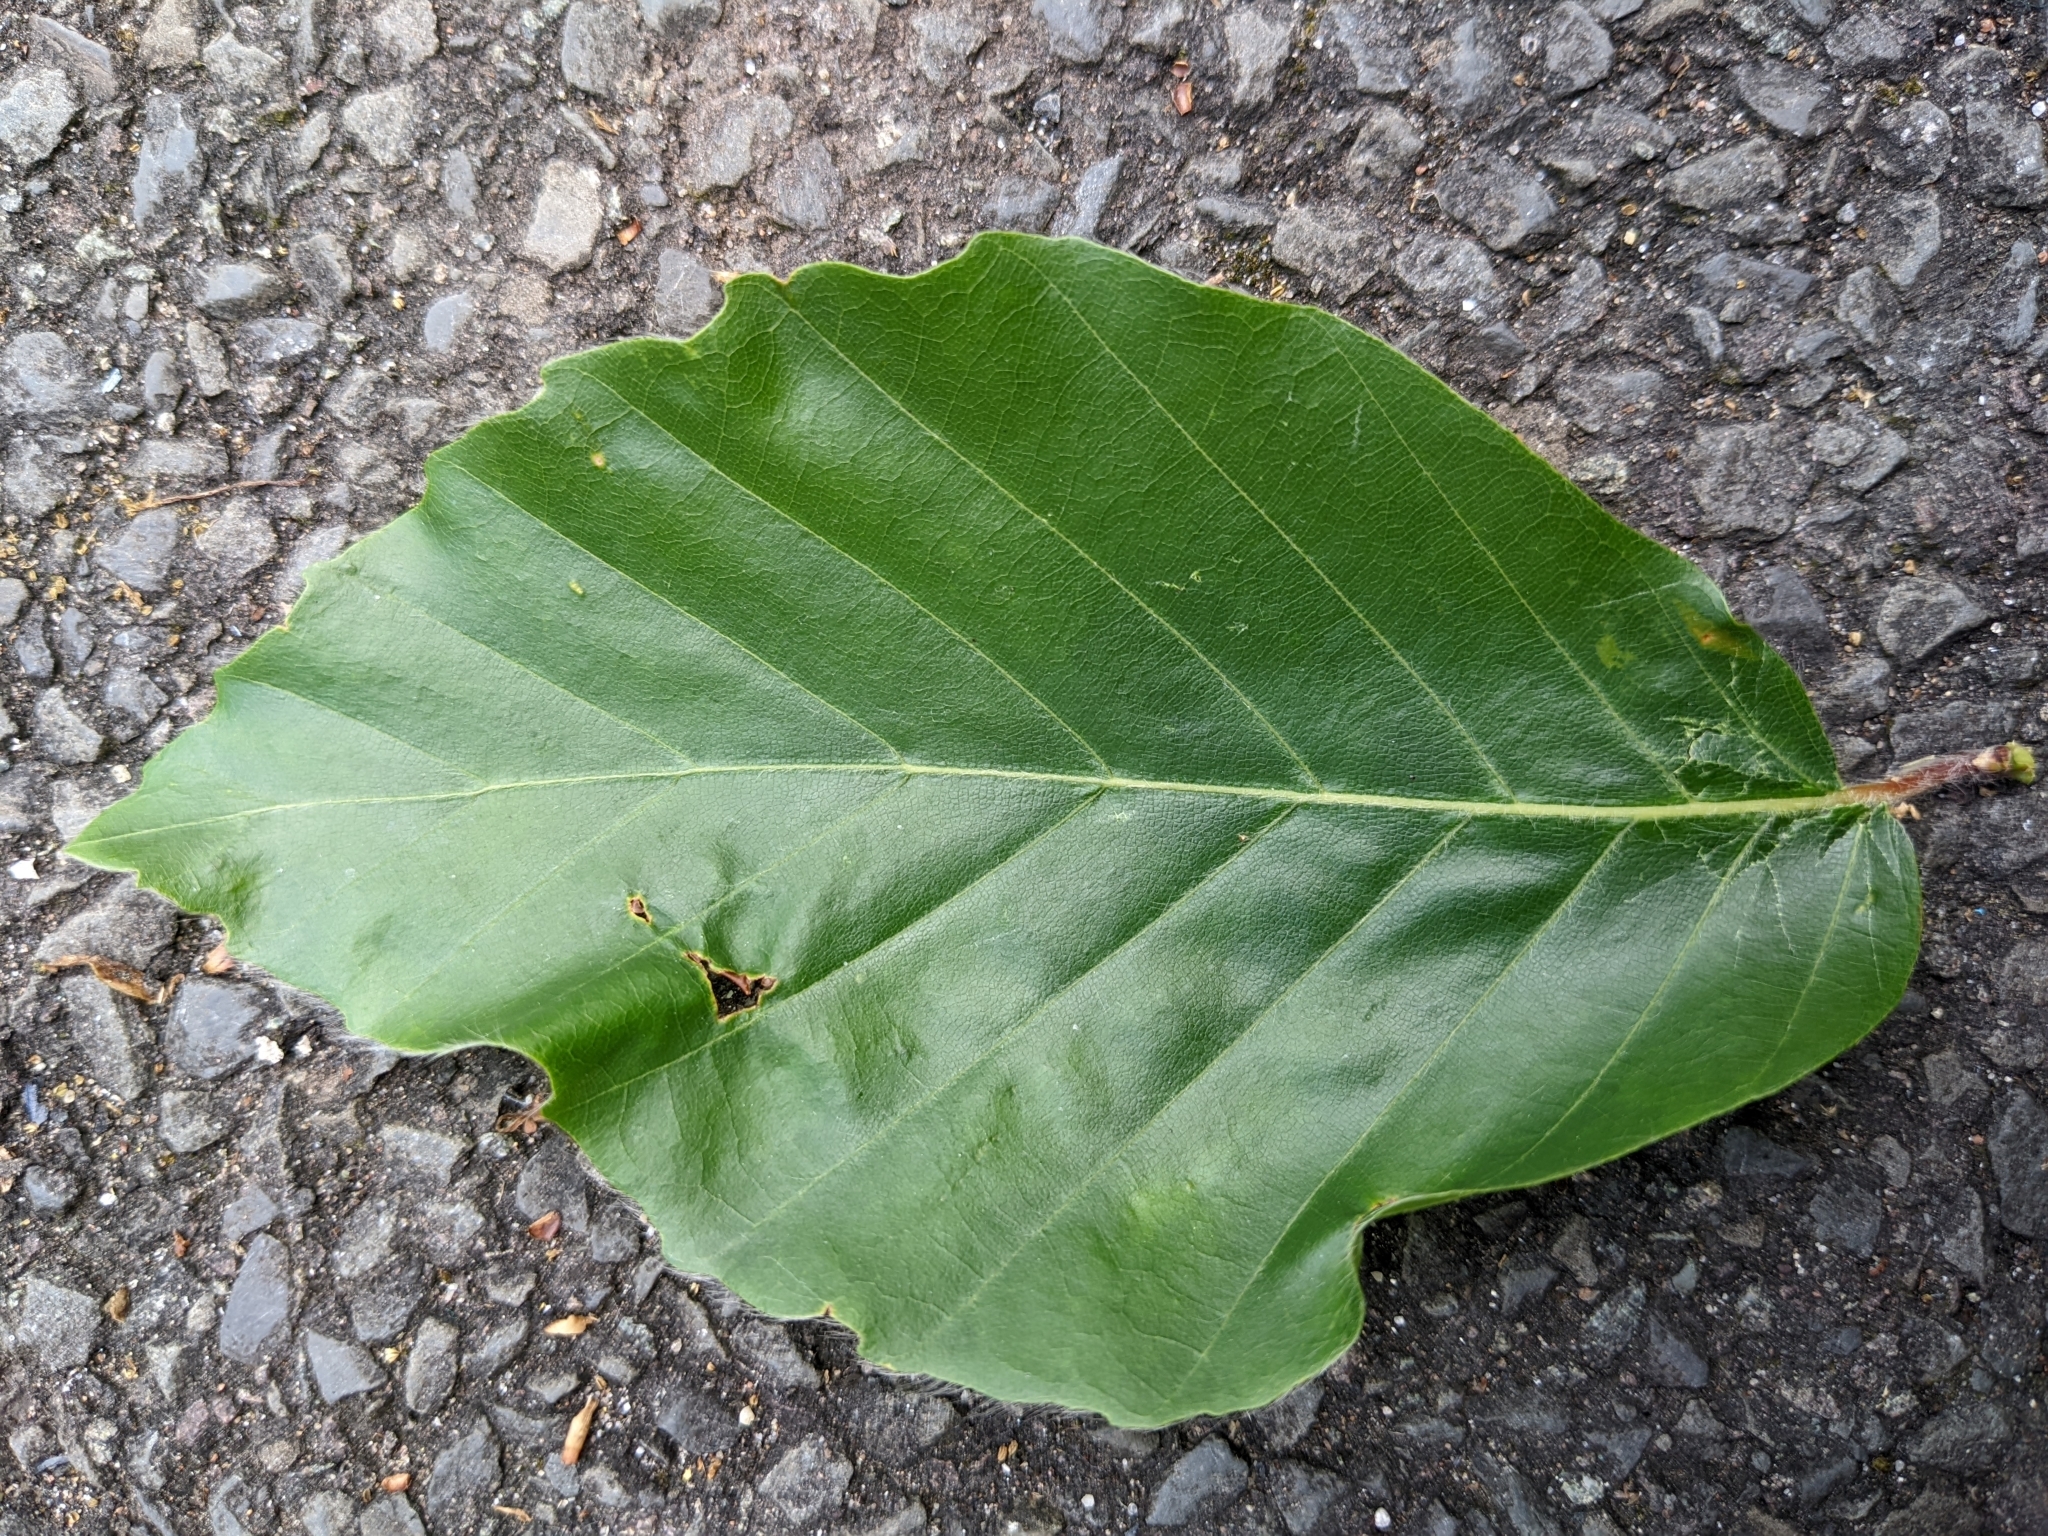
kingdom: Plantae
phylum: Tracheophyta
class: Magnoliopsida
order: Fagales
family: Fagaceae
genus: Fagus
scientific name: Fagus sylvatica
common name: Beech
